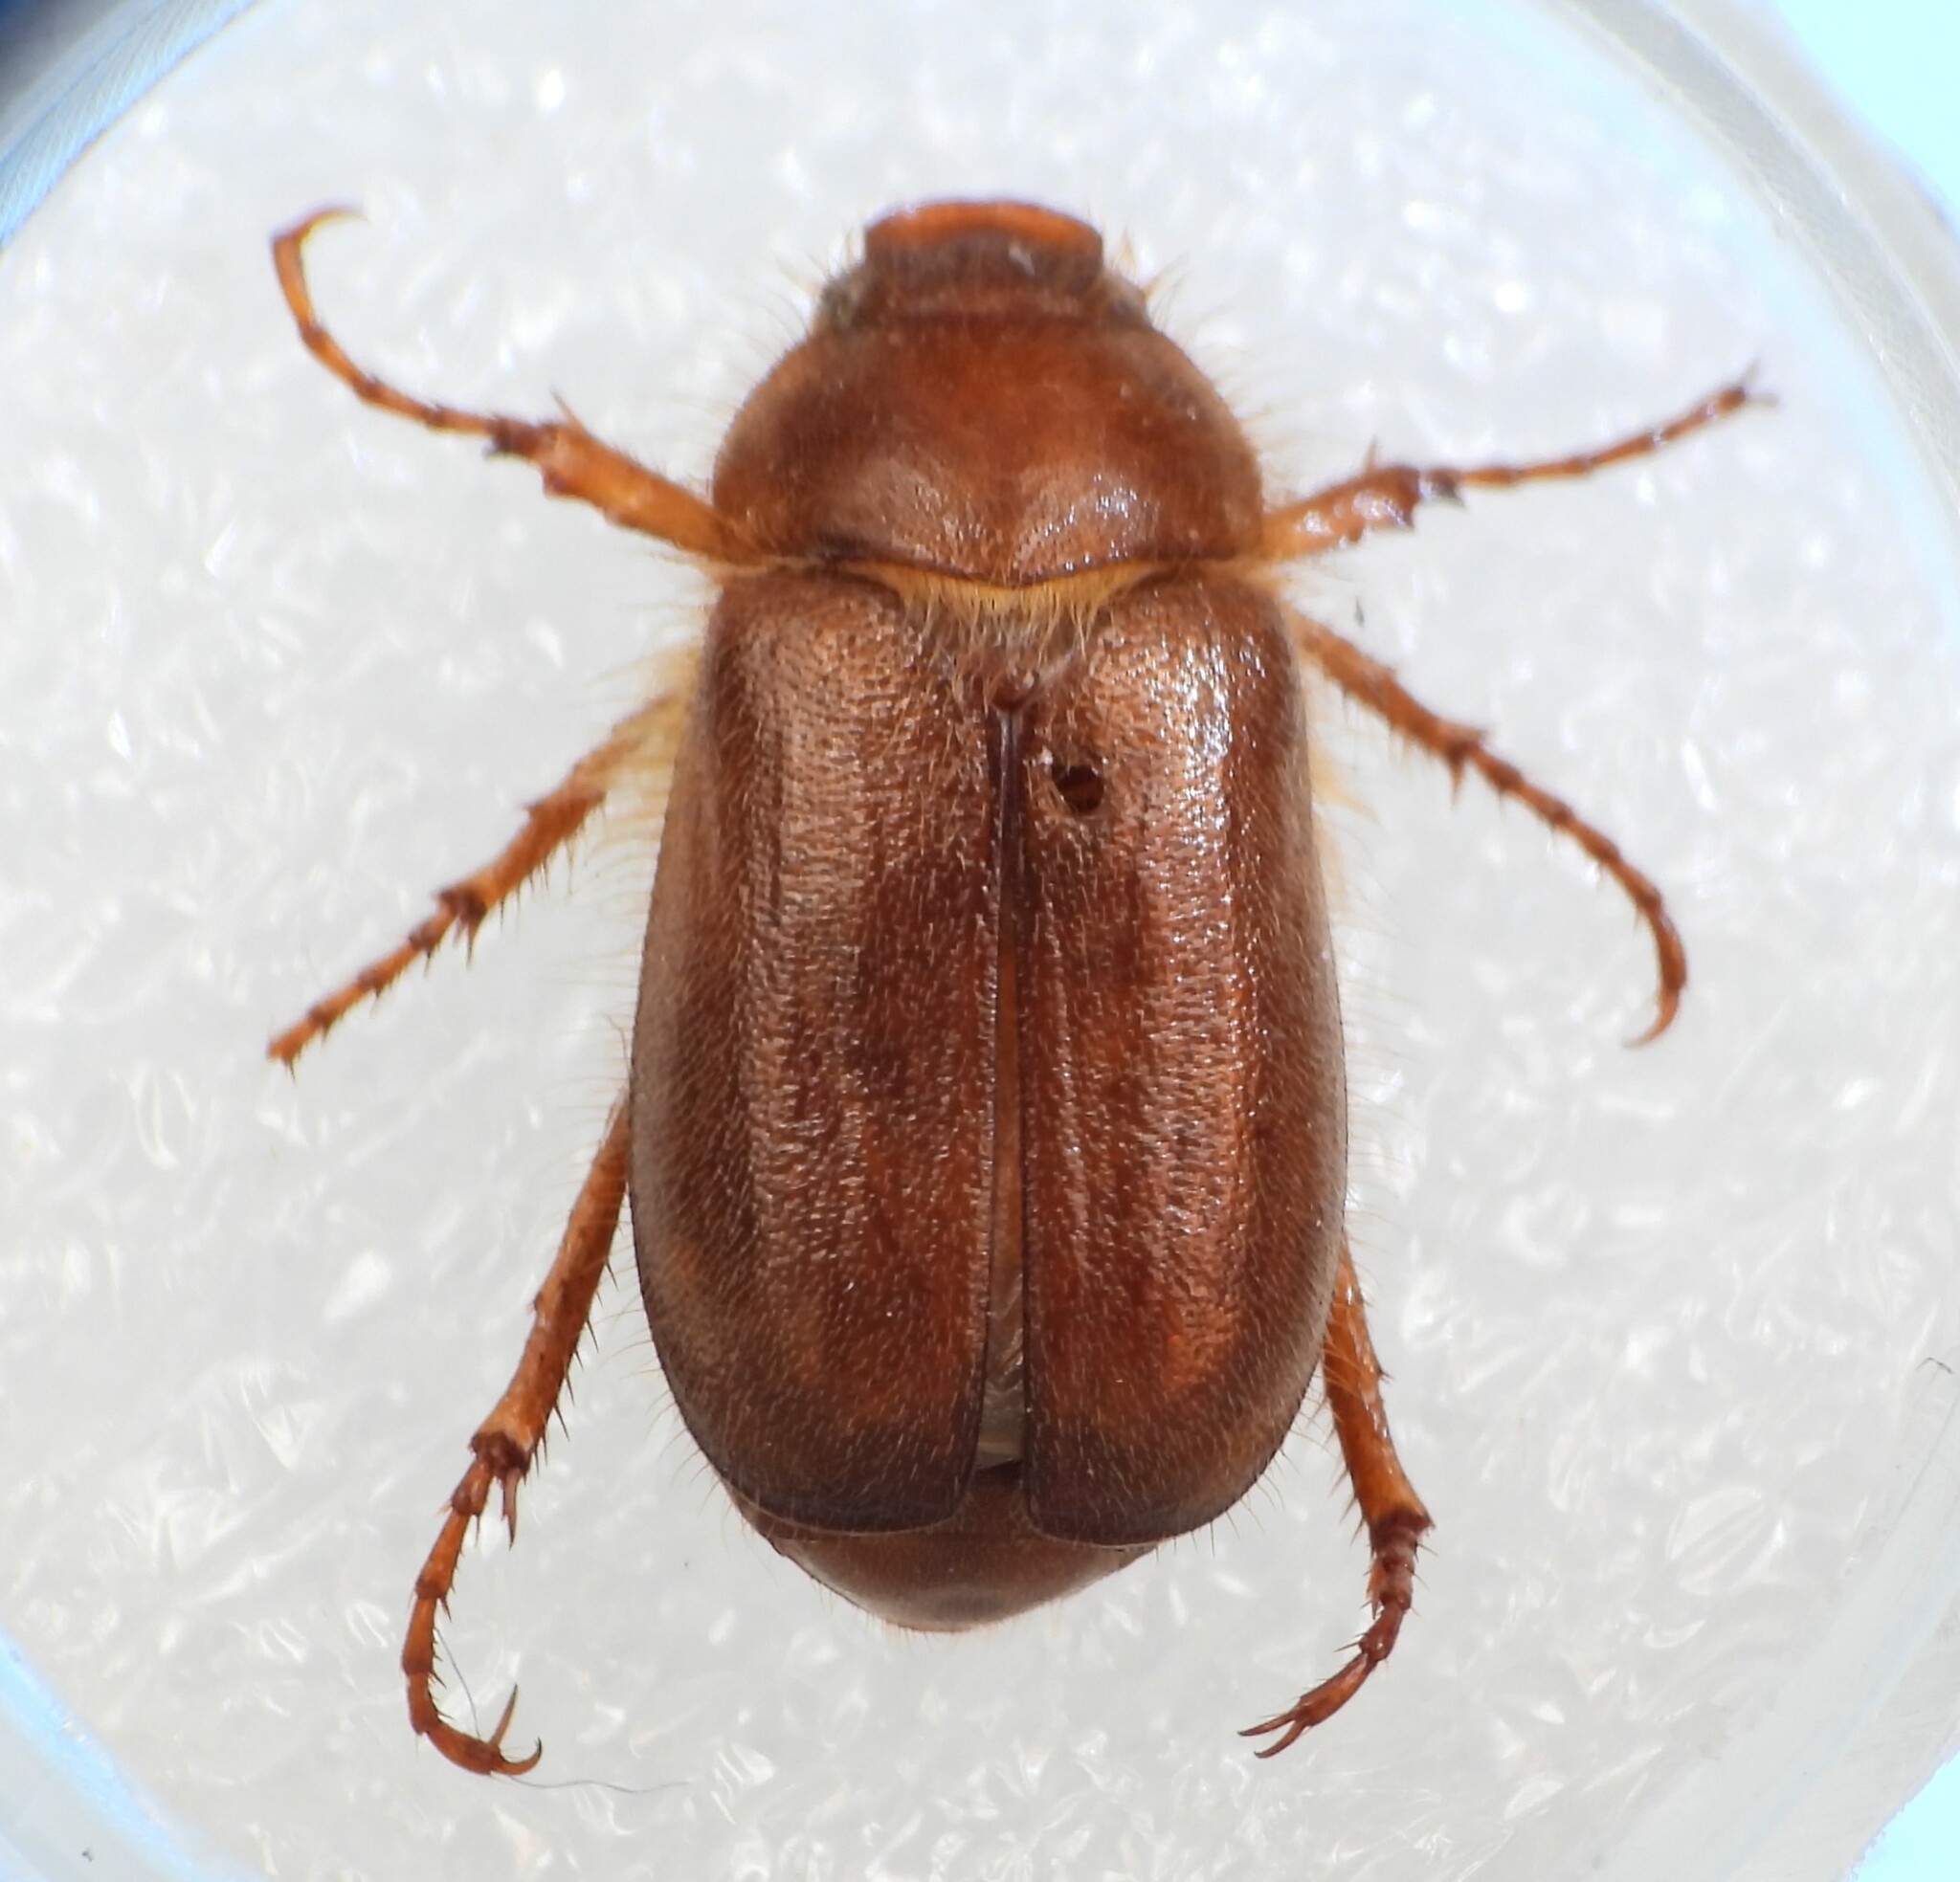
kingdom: Animalia
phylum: Arthropoda
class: Insecta
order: Coleoptera
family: Scarabaeidae
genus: Amphimallon
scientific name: Amphimallon assimile
